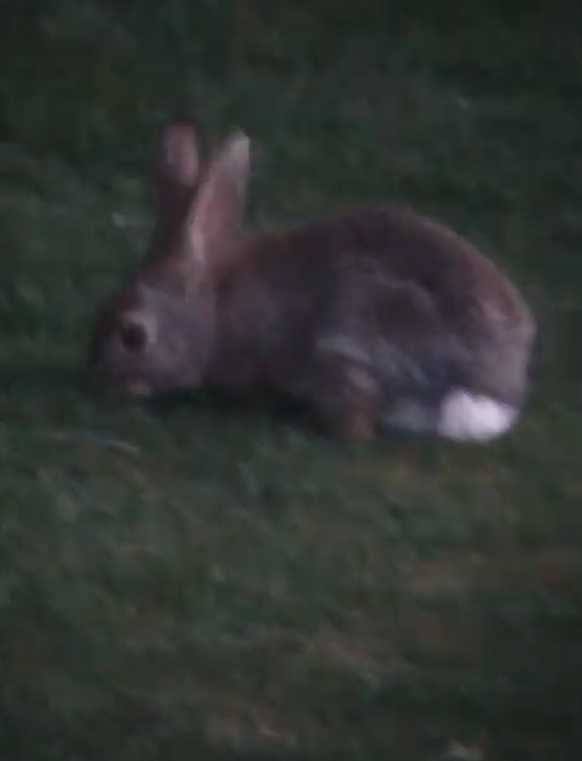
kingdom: Animalia
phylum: Chordata
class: Mammalia
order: Lagomorpha
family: Leporidae
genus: Sylvilagus
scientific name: Sylvilagus audubonii
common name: Desert cottontail
